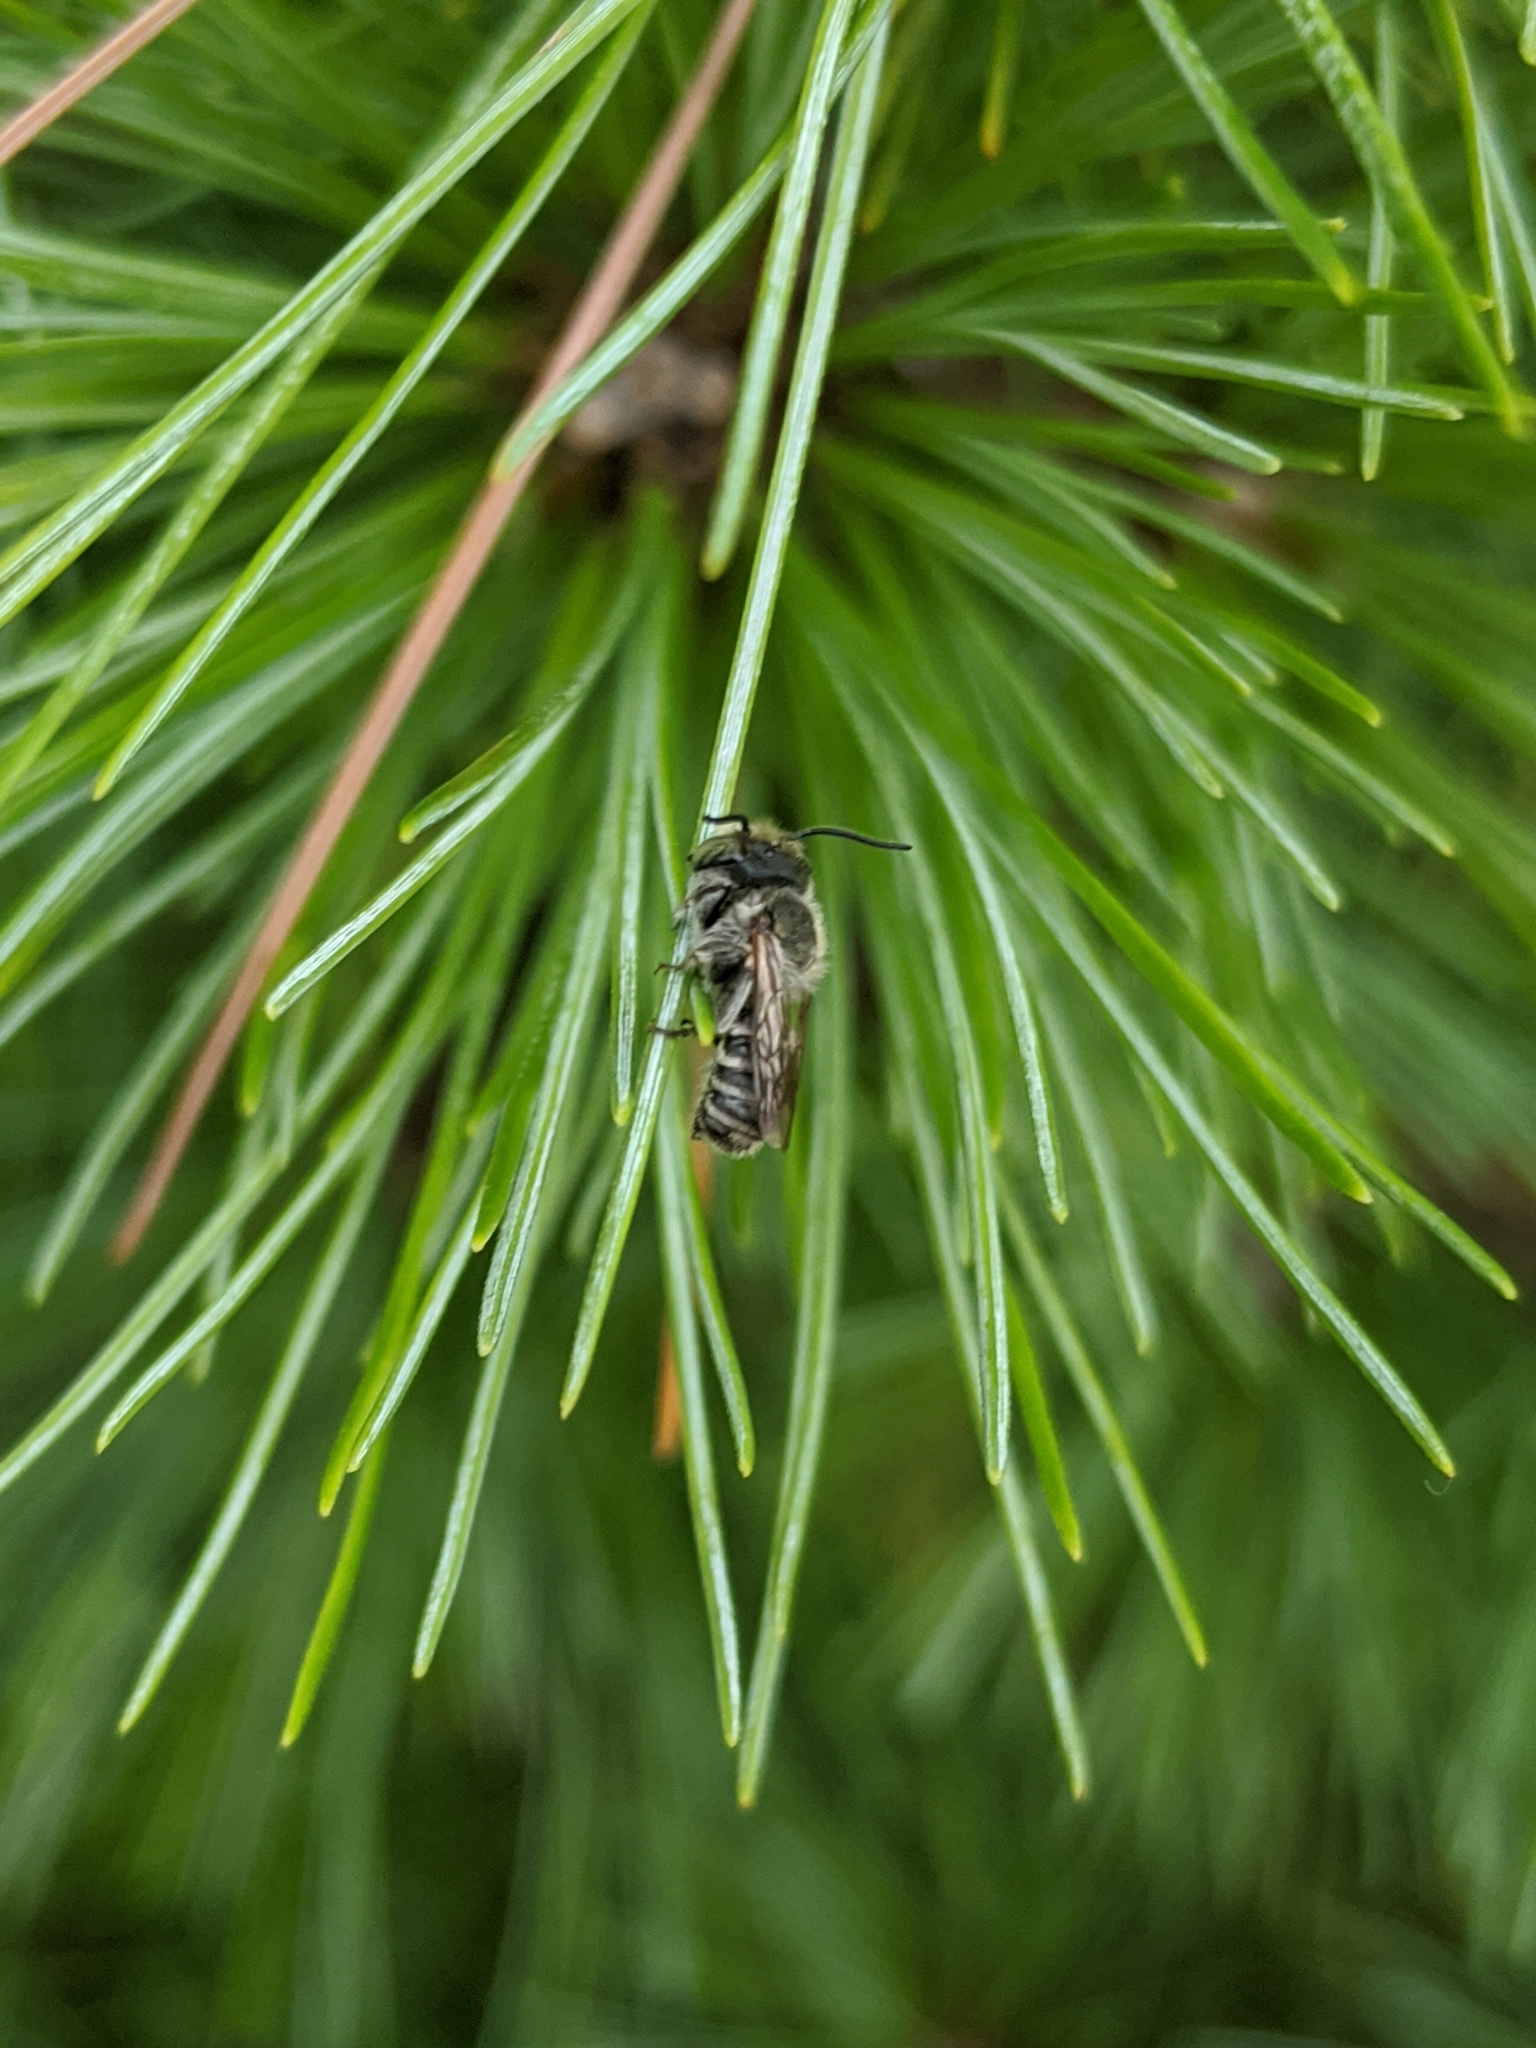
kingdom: Animalia
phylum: Arthropoda
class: Insecta
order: Hymenoptera
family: Megachilidae
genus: Megachile
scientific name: Megachile rotundata
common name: Alfalfa leafcutting bee
